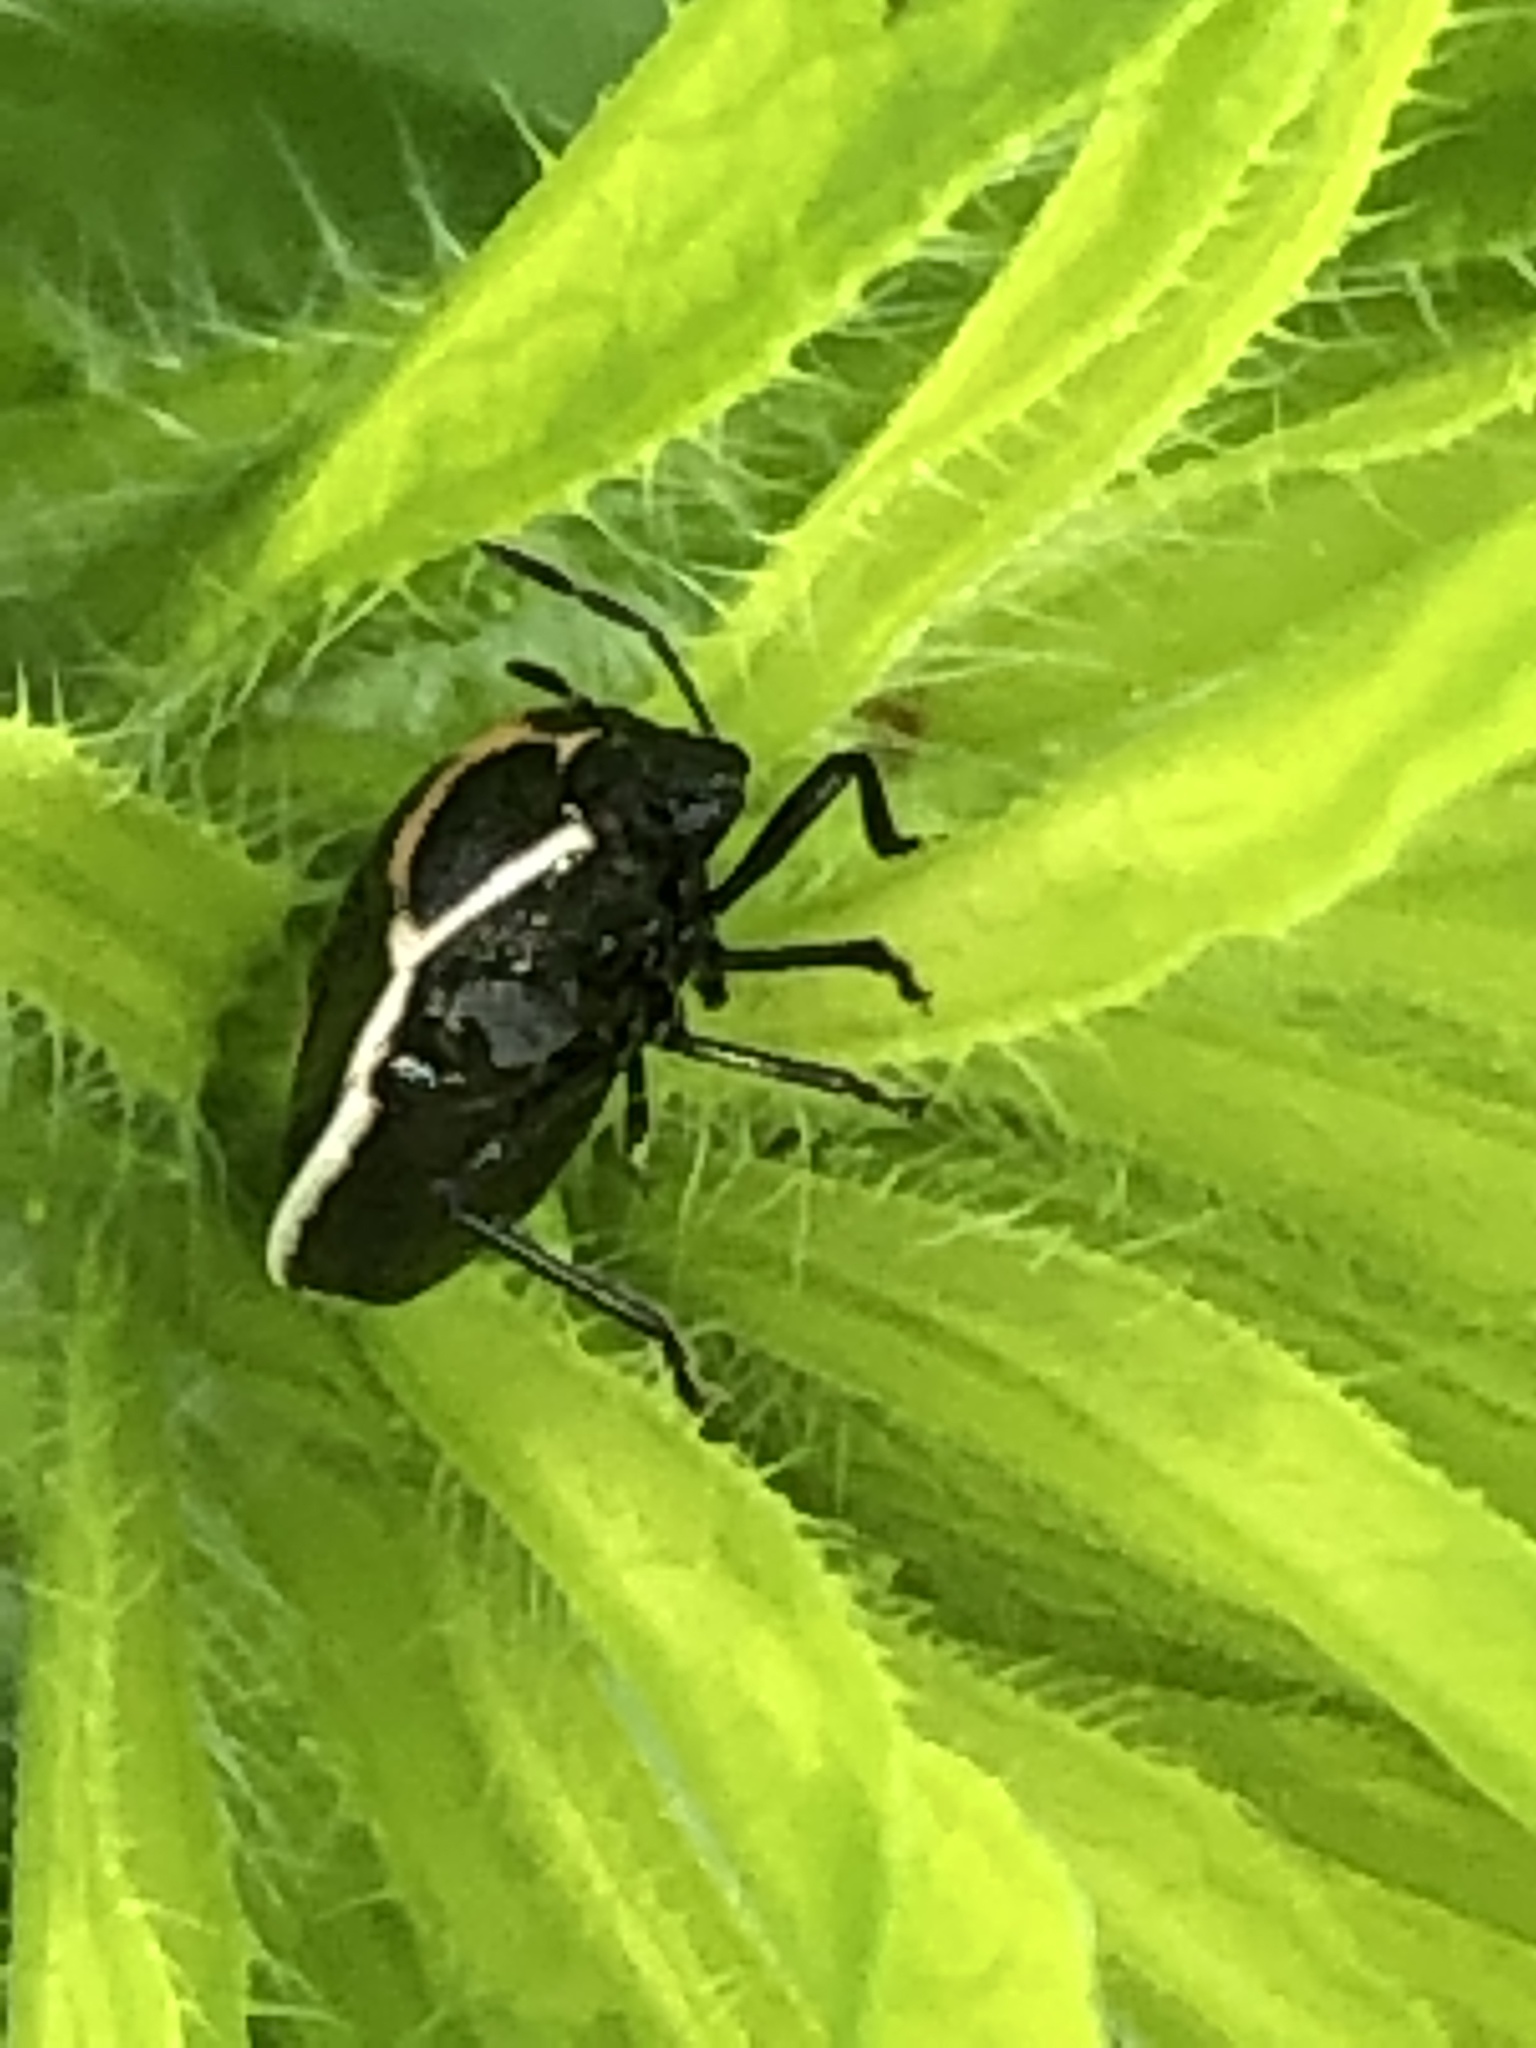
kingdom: Animalia
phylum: Arthropoda
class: Insecta
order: Hemiptera
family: Pentatomidae
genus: Cosmopepla
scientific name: Cosmopepla lintneriana
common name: Twice-stabbed stink bug
